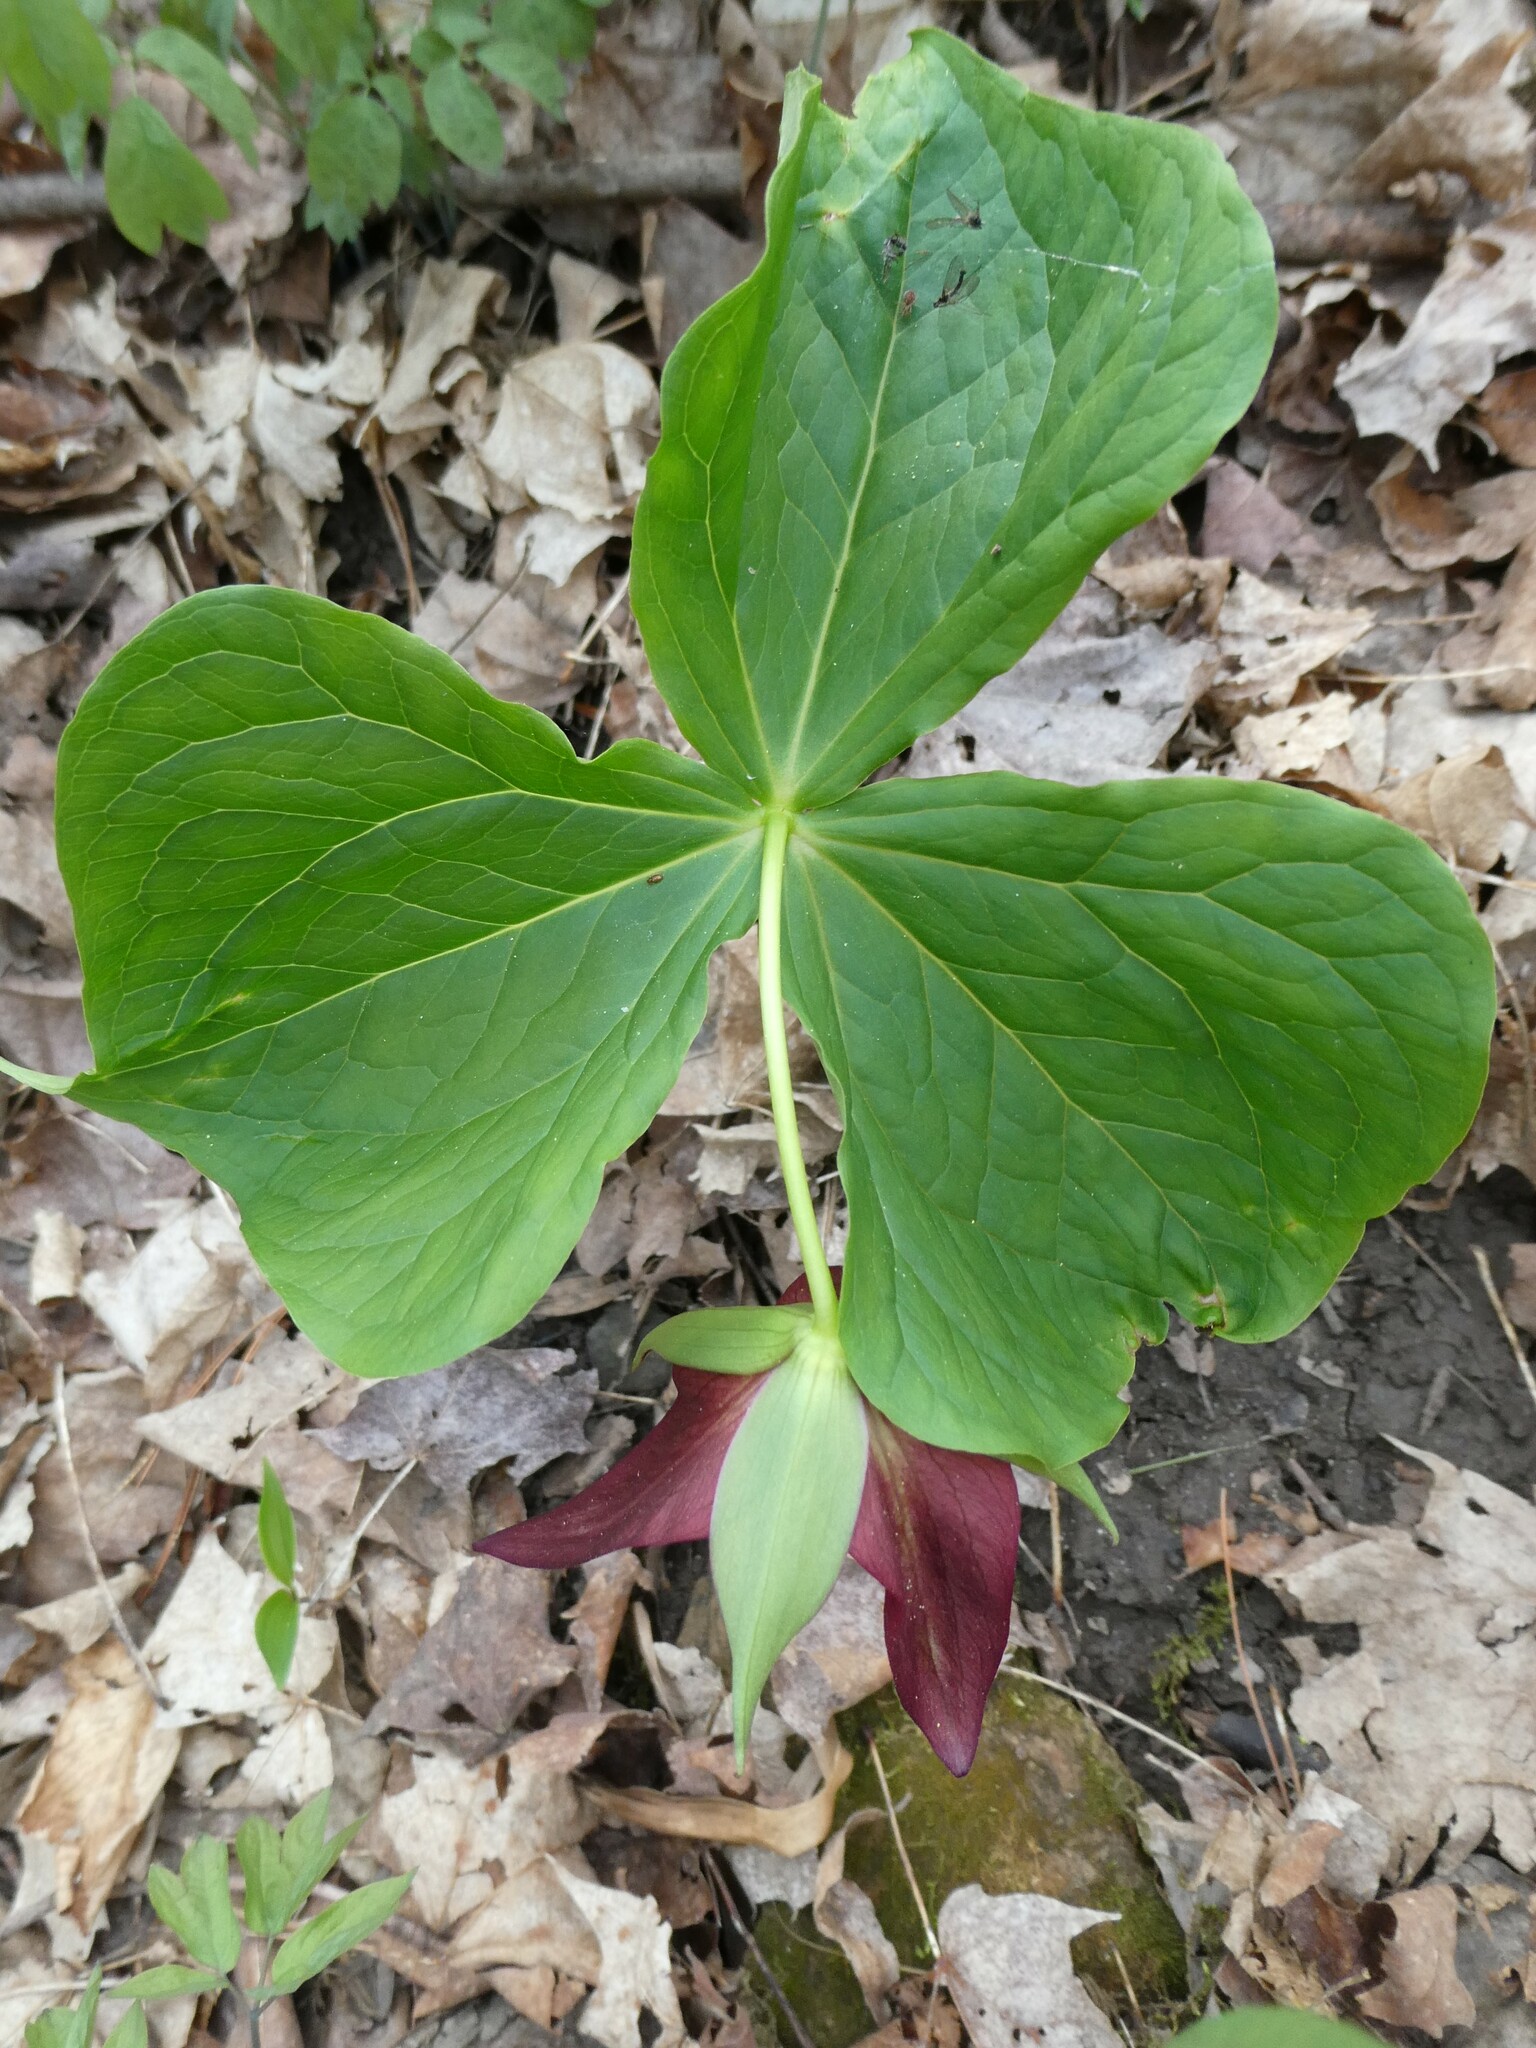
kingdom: Plantae
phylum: Tracheophyta
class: Liliopsida
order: Liliales
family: Melanthiaceae
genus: Trillium
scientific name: Trillium erectum
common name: Purple trillium
